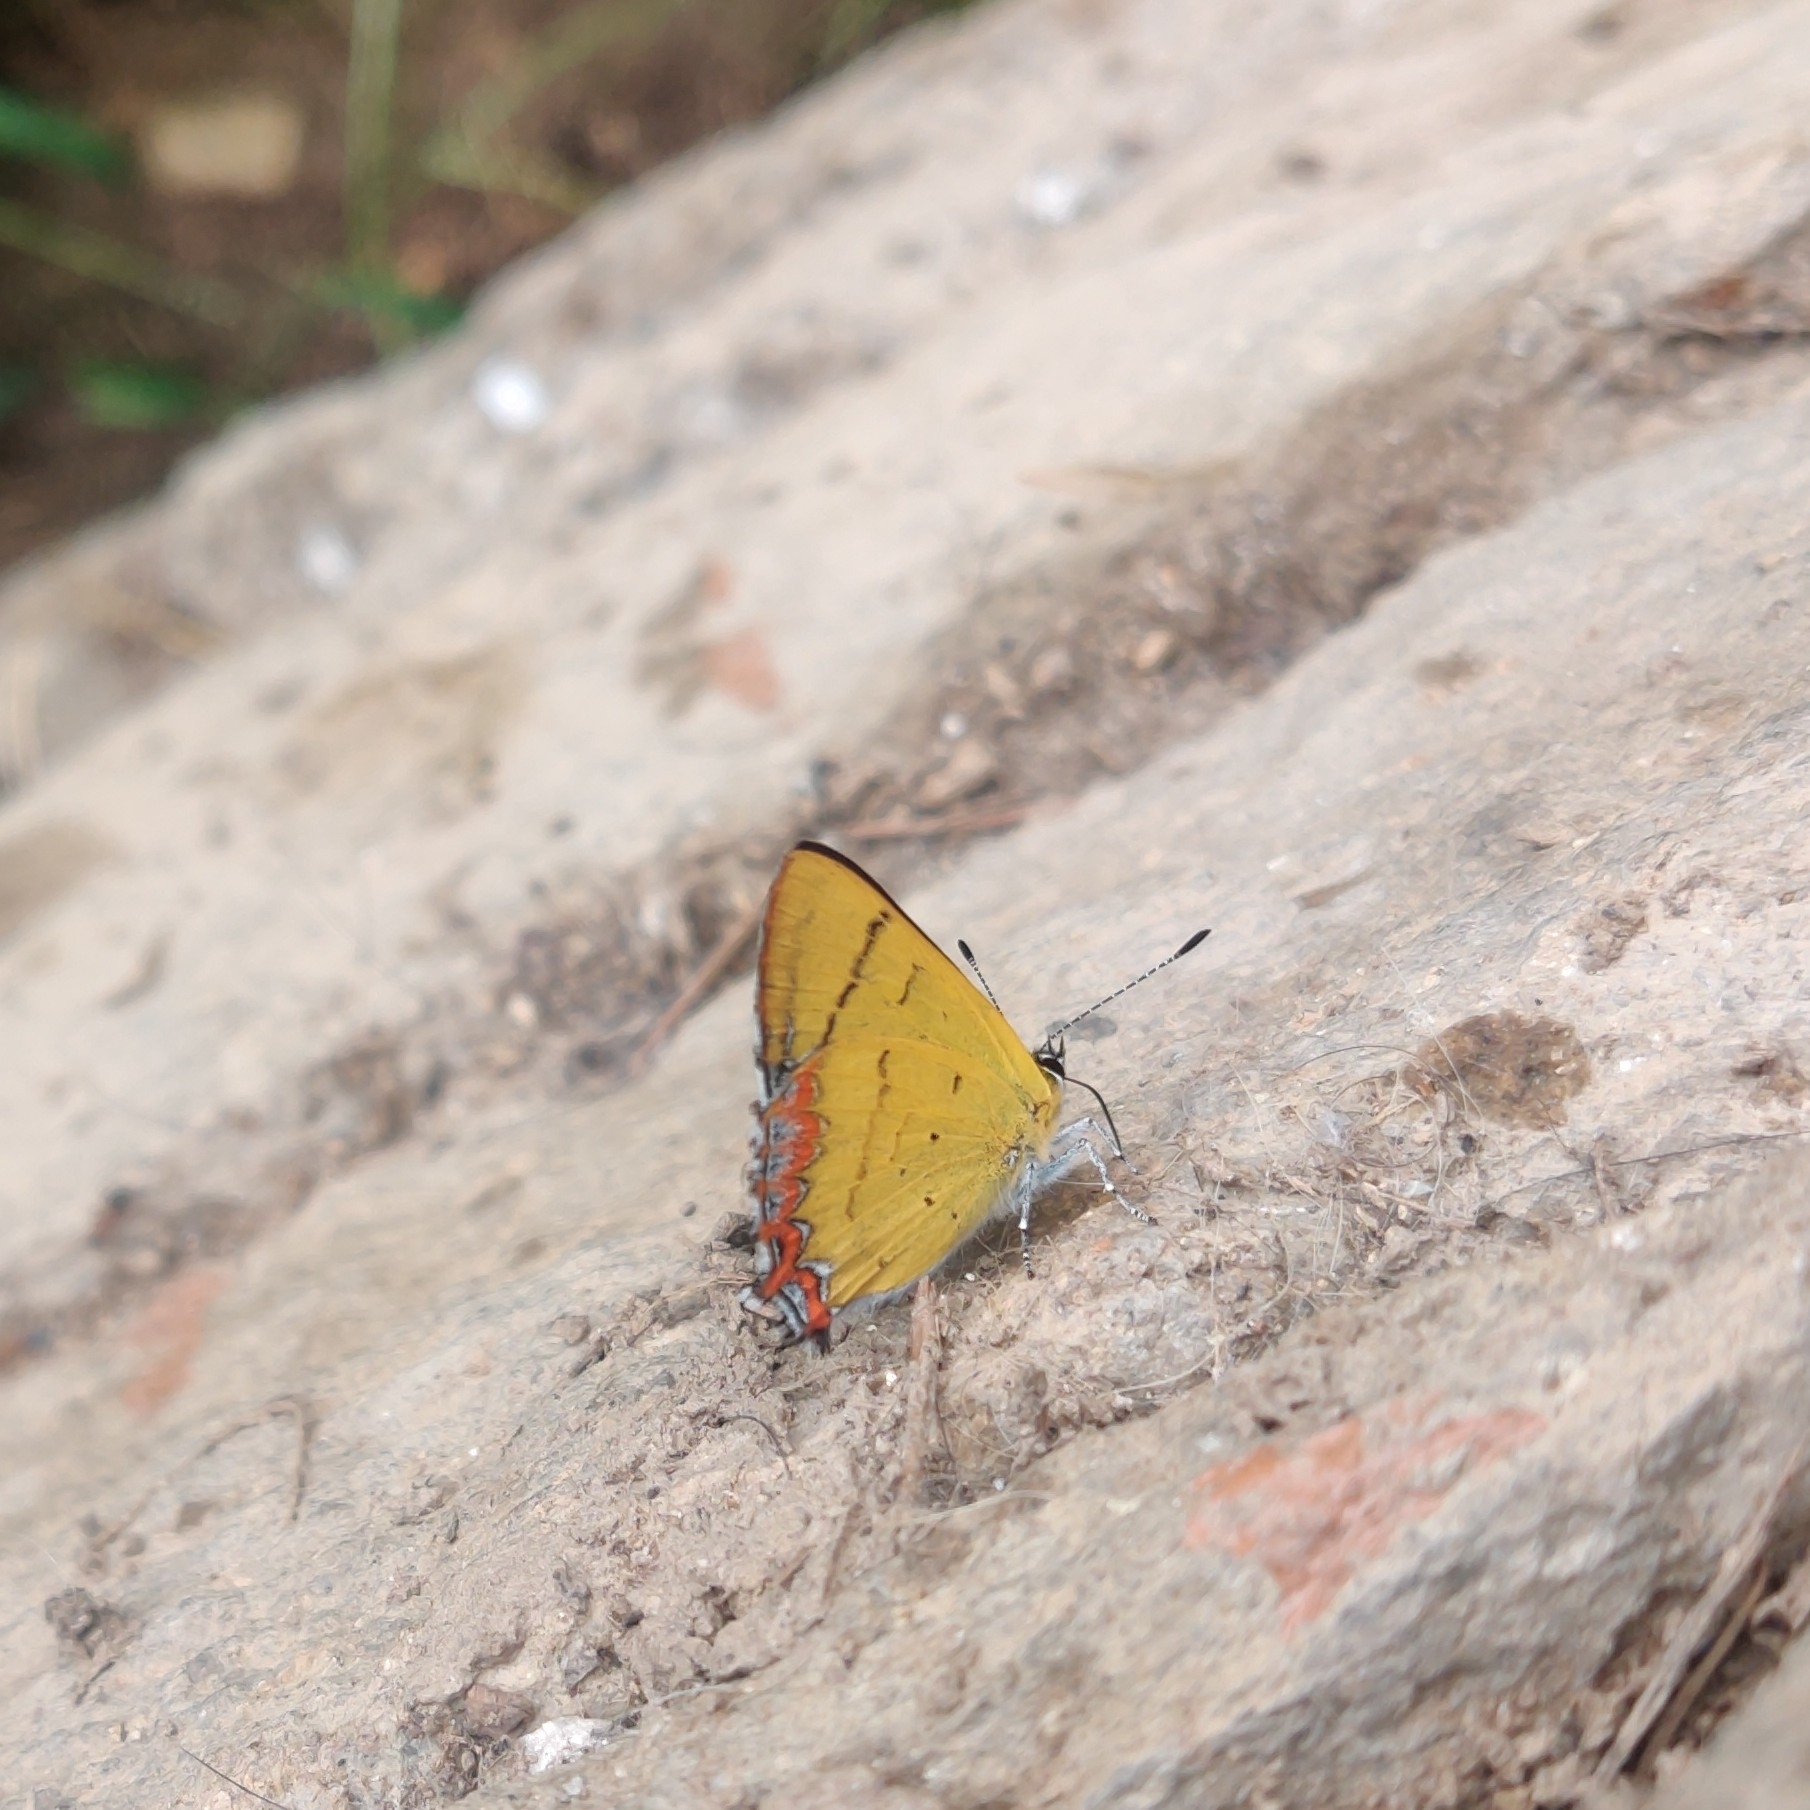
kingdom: Animalia
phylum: Arthropoda
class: Insecta
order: Lepidoptera
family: Lycaenidae
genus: Heliophorus
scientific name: Heliophorus
